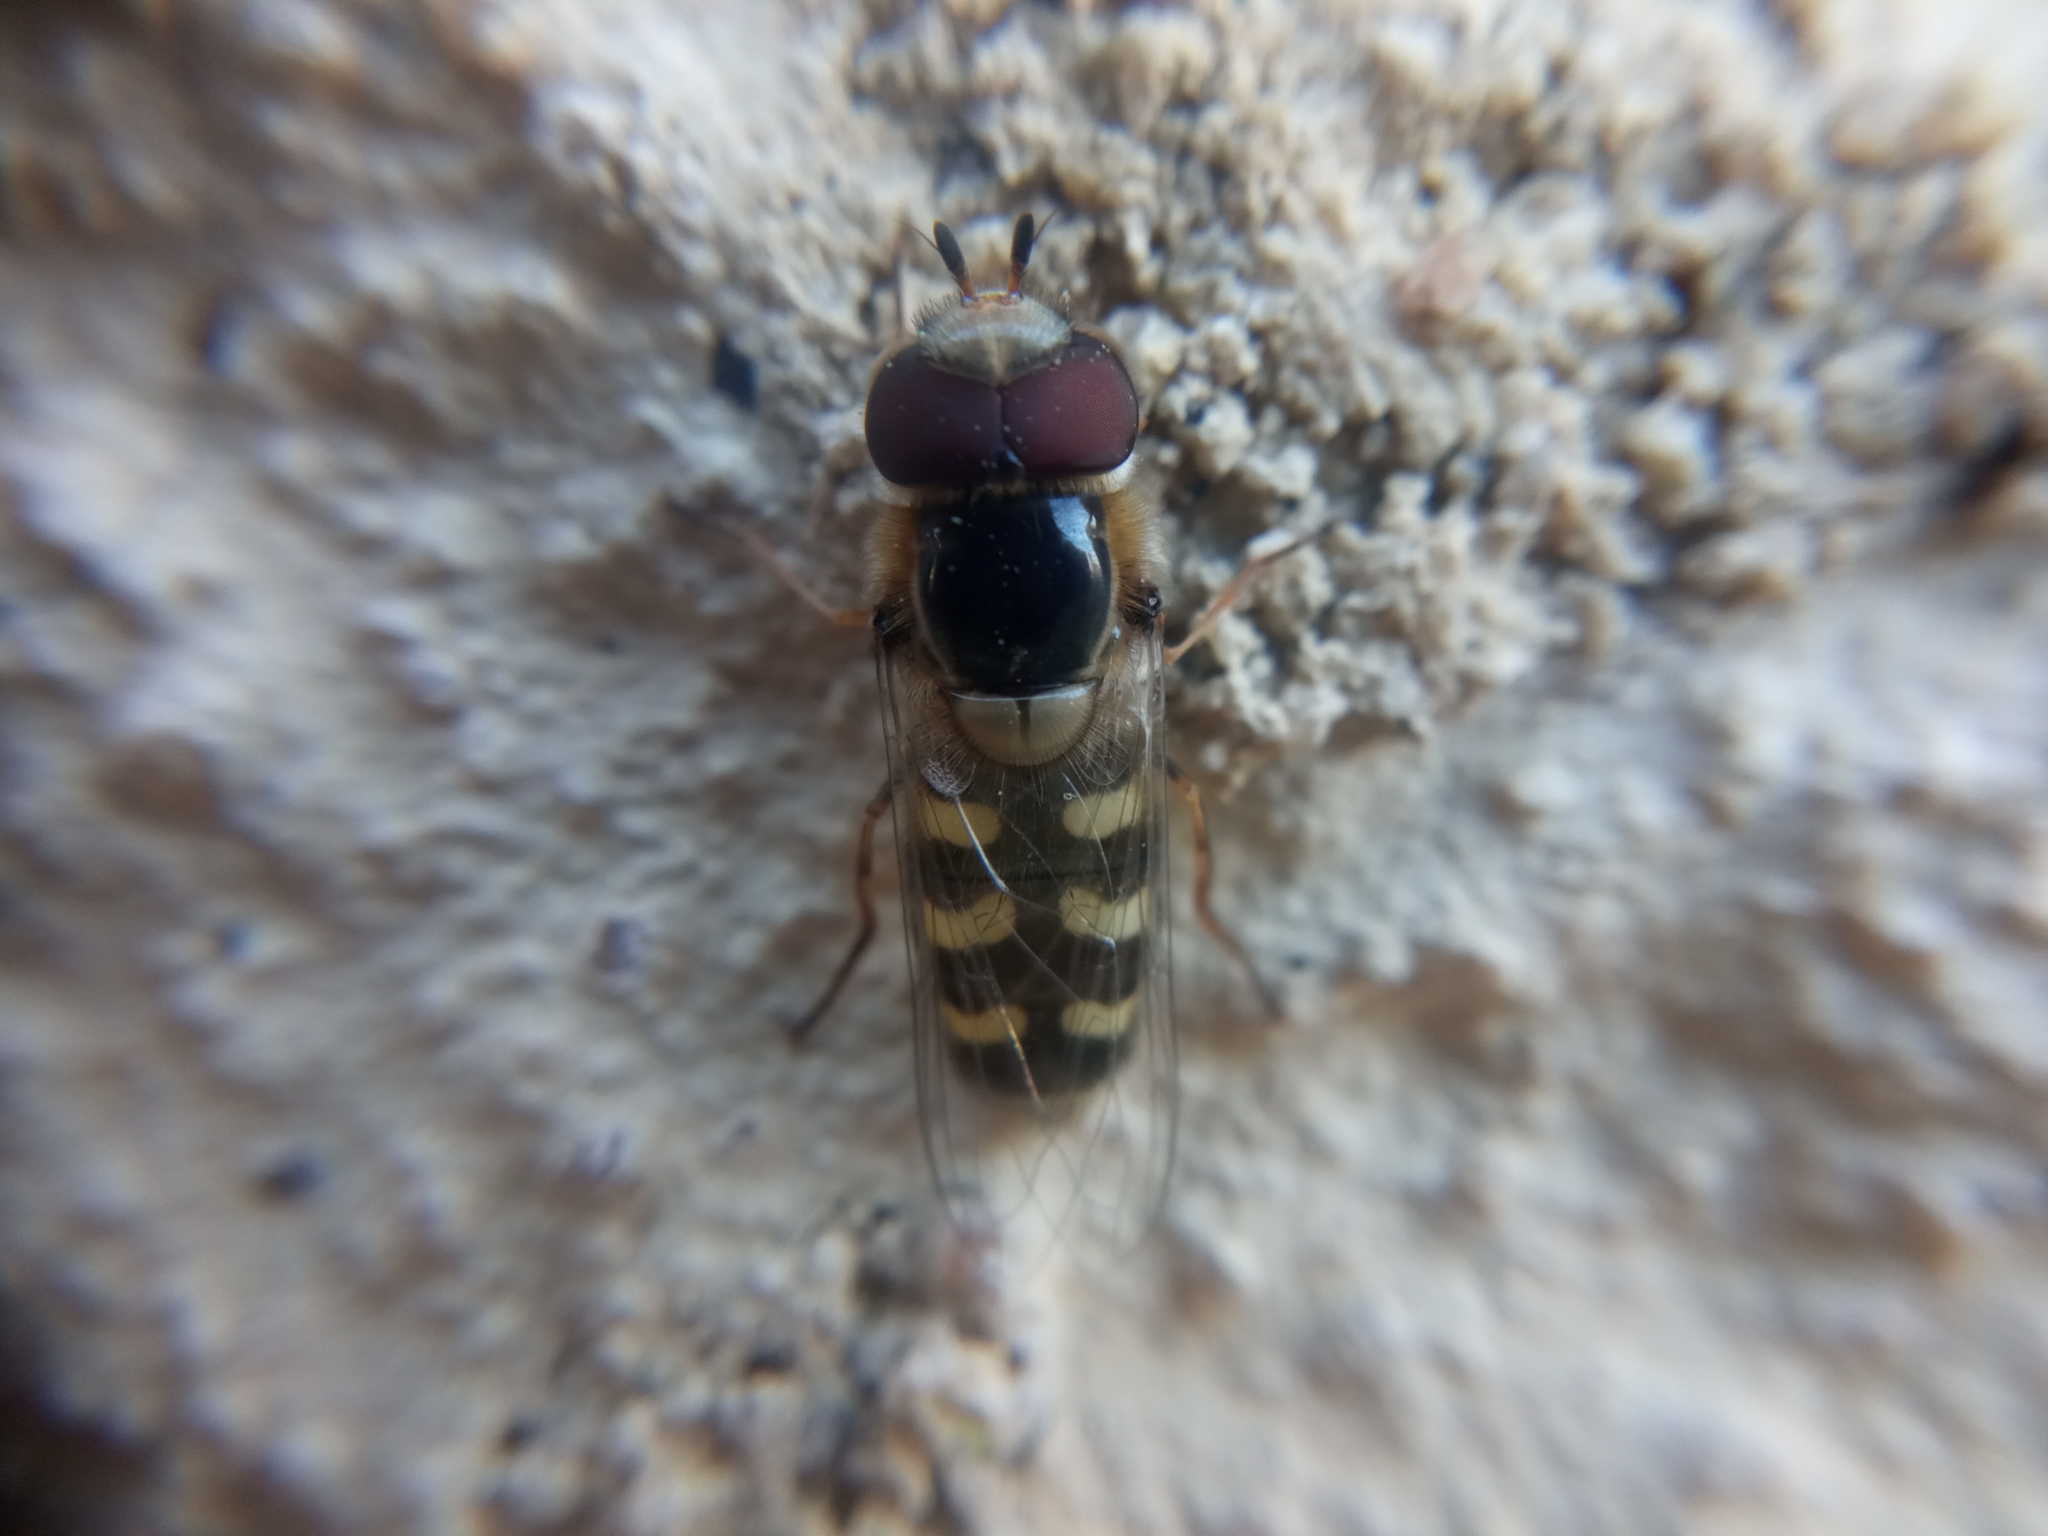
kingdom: Animalia
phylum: Arthropoda
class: Insecta
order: Diptera
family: Syrphidae
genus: Scaeva
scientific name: Scaeva pyrastri
